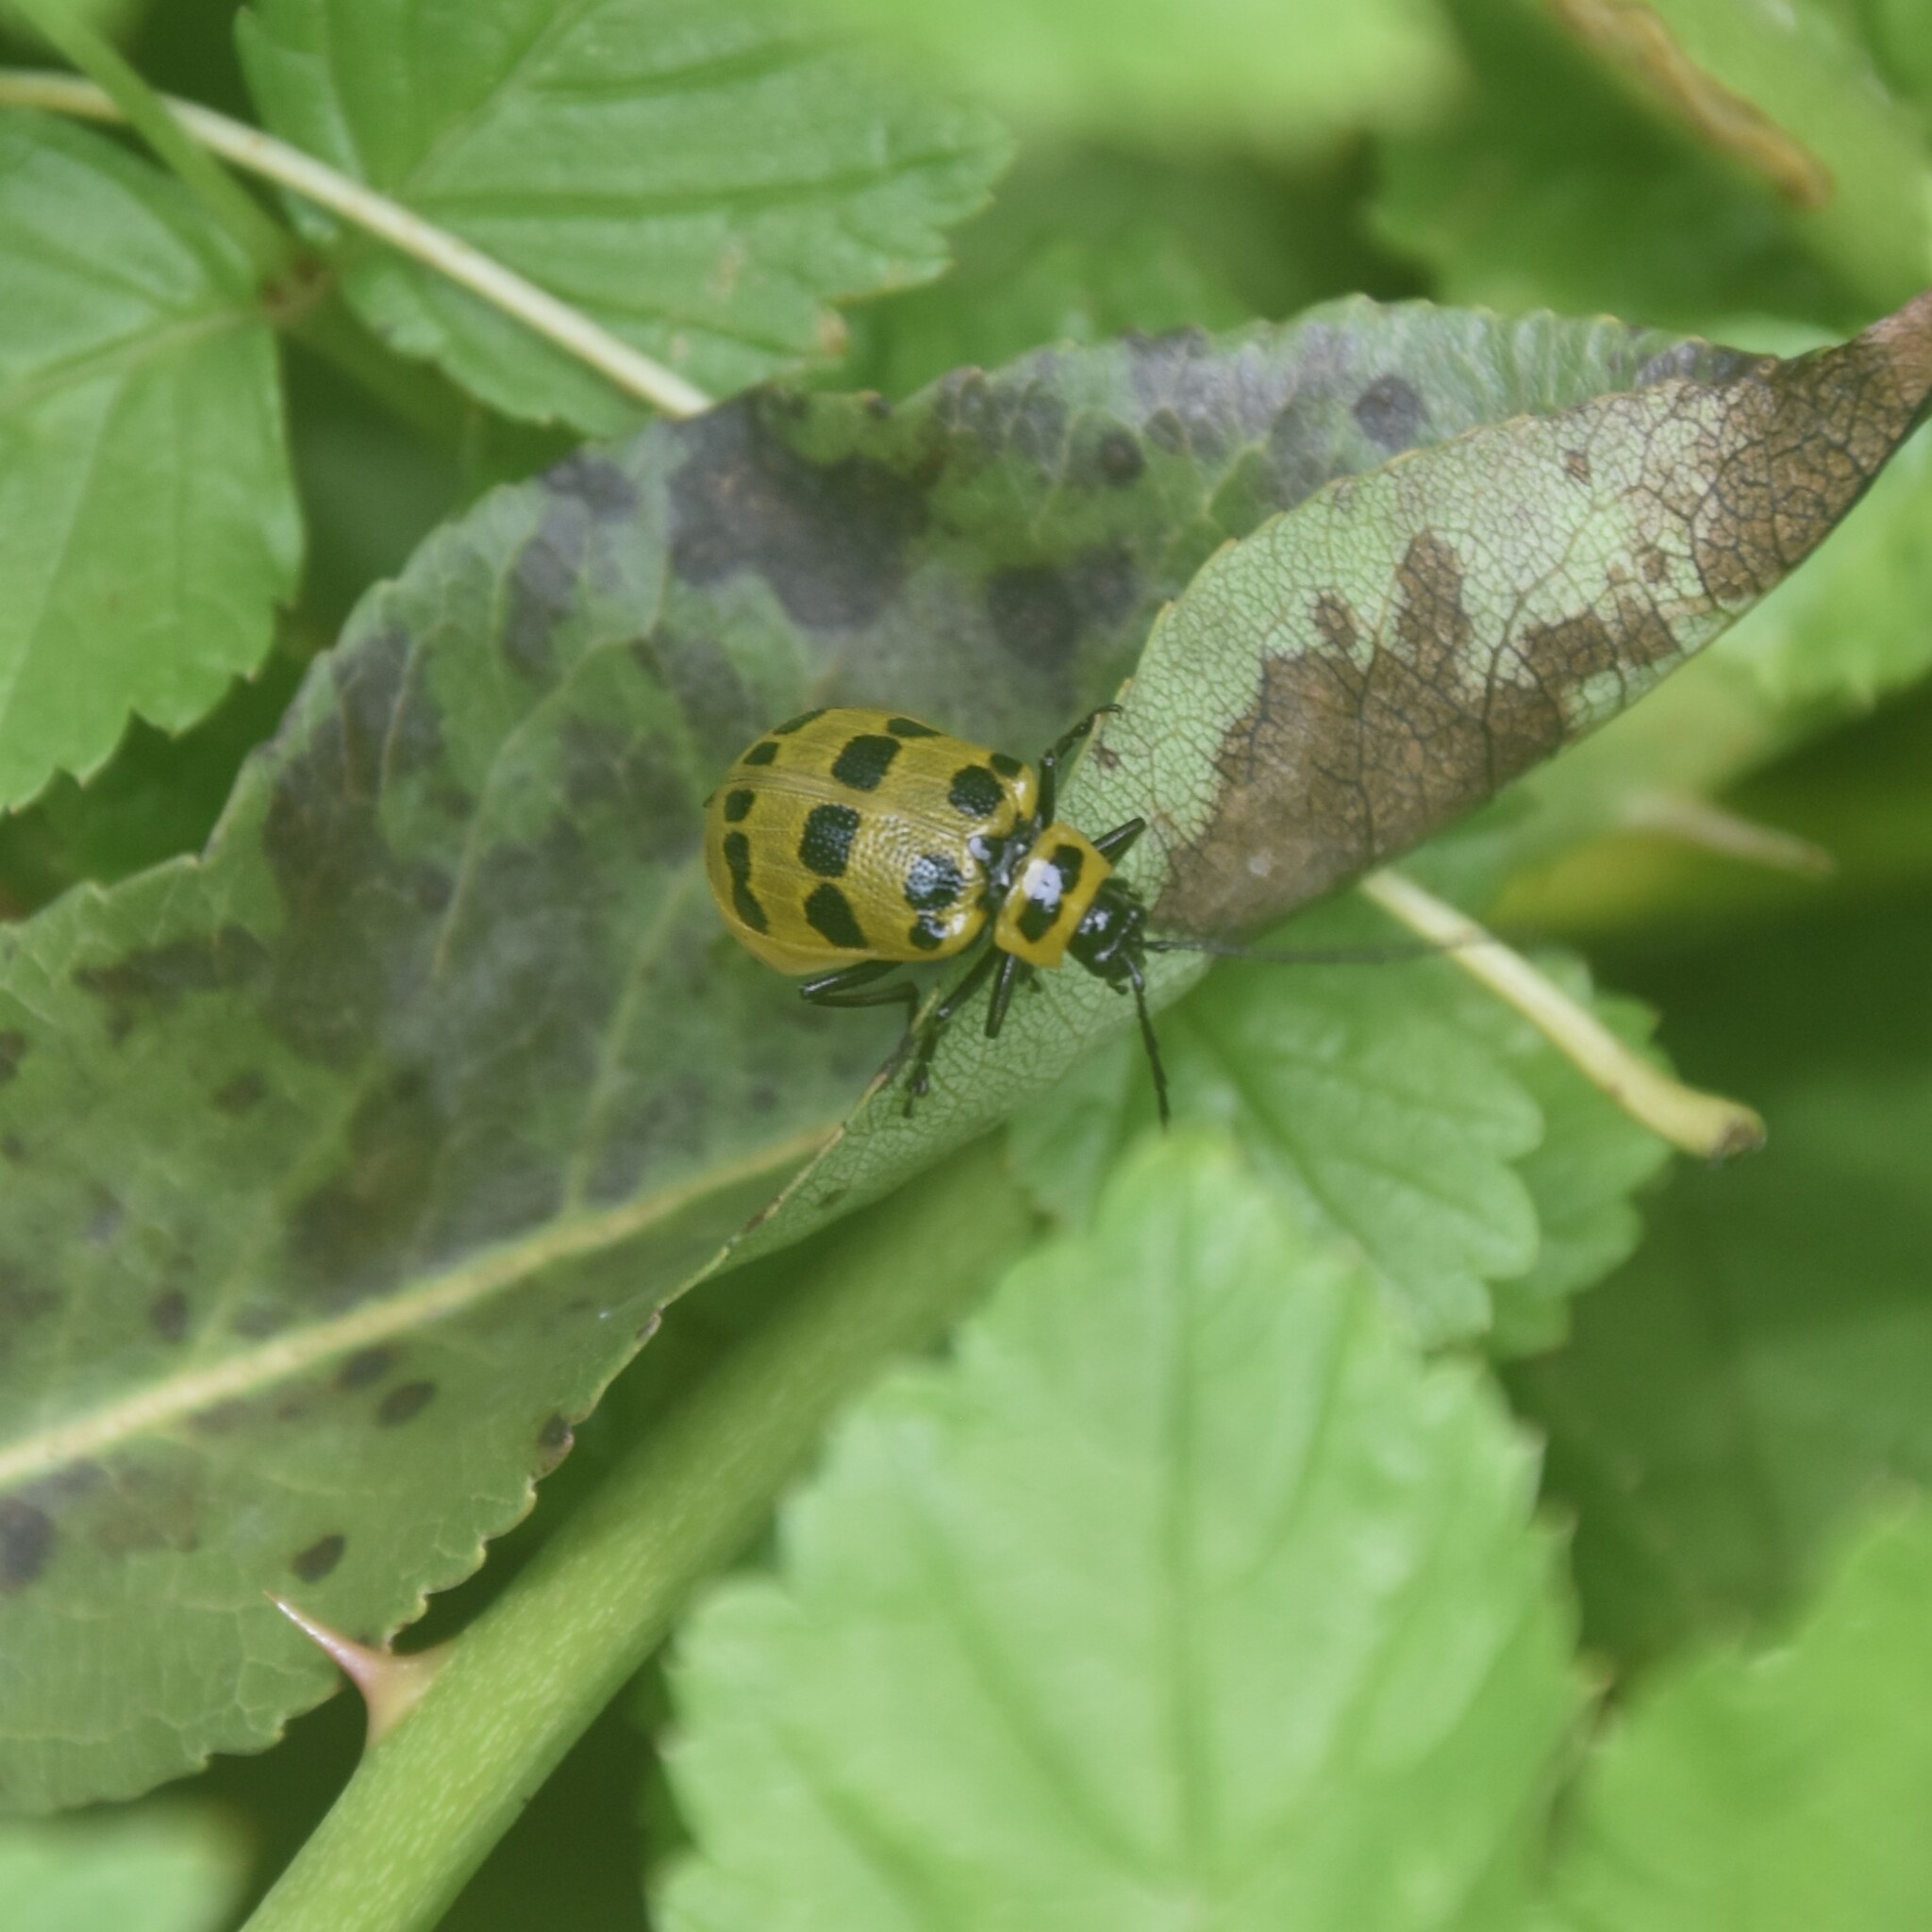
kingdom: Animalia
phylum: Arthropoda
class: Insecta
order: Coleoptera
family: Chrysomelidae
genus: Meristata
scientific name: Meristata quadrifasciata
